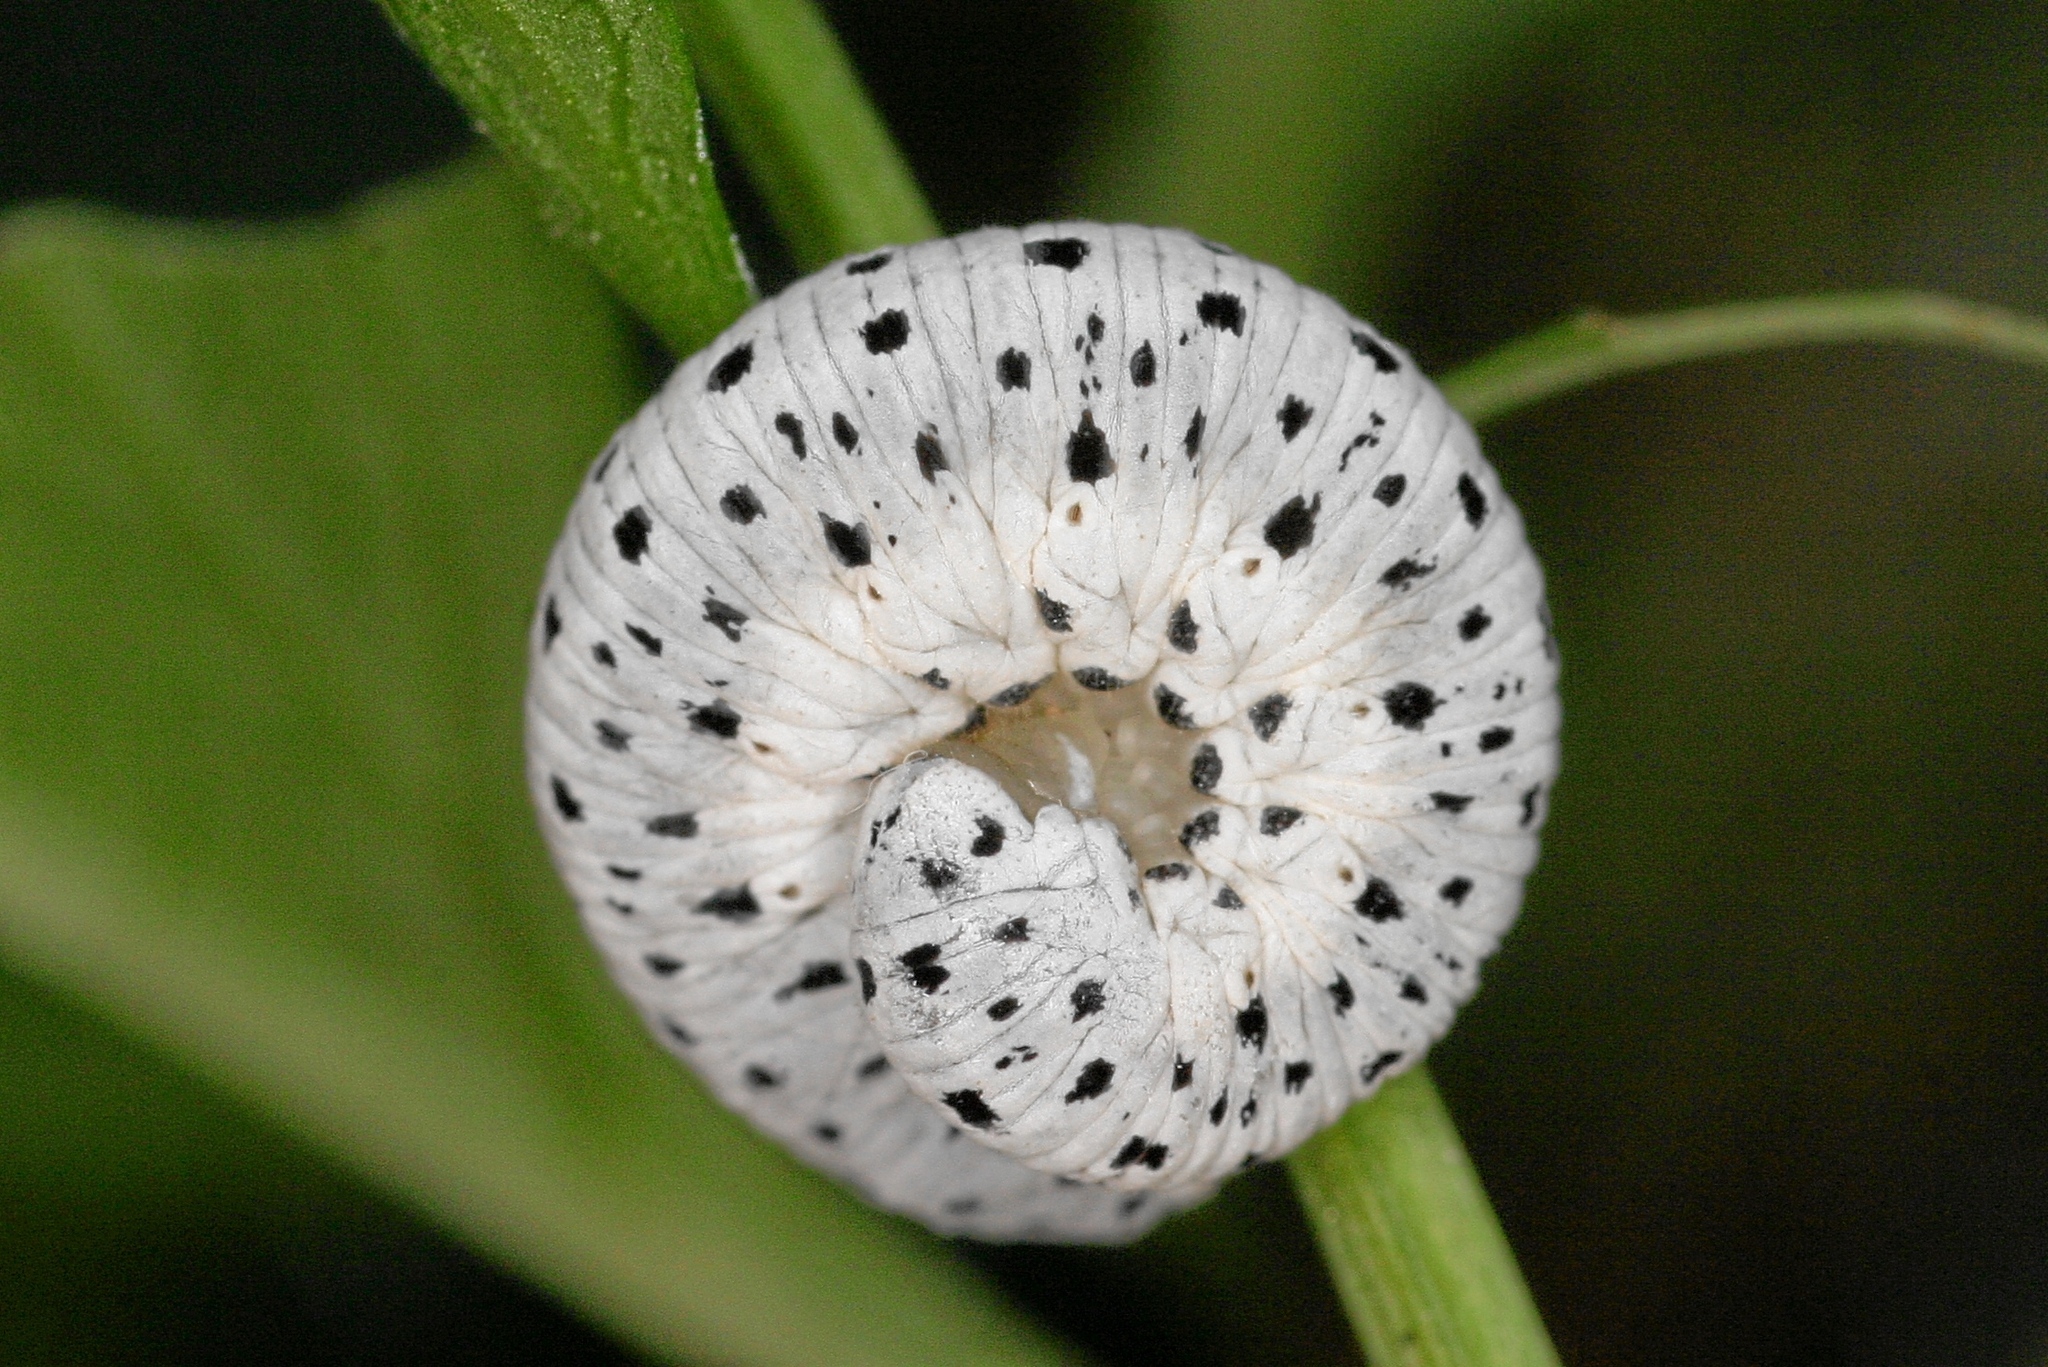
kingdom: Animalia
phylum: Arthropoda
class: Insecta
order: Hymenoptera
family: Tenthredinidae
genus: Tenthredo
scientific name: Tenthredo scrophulariae
